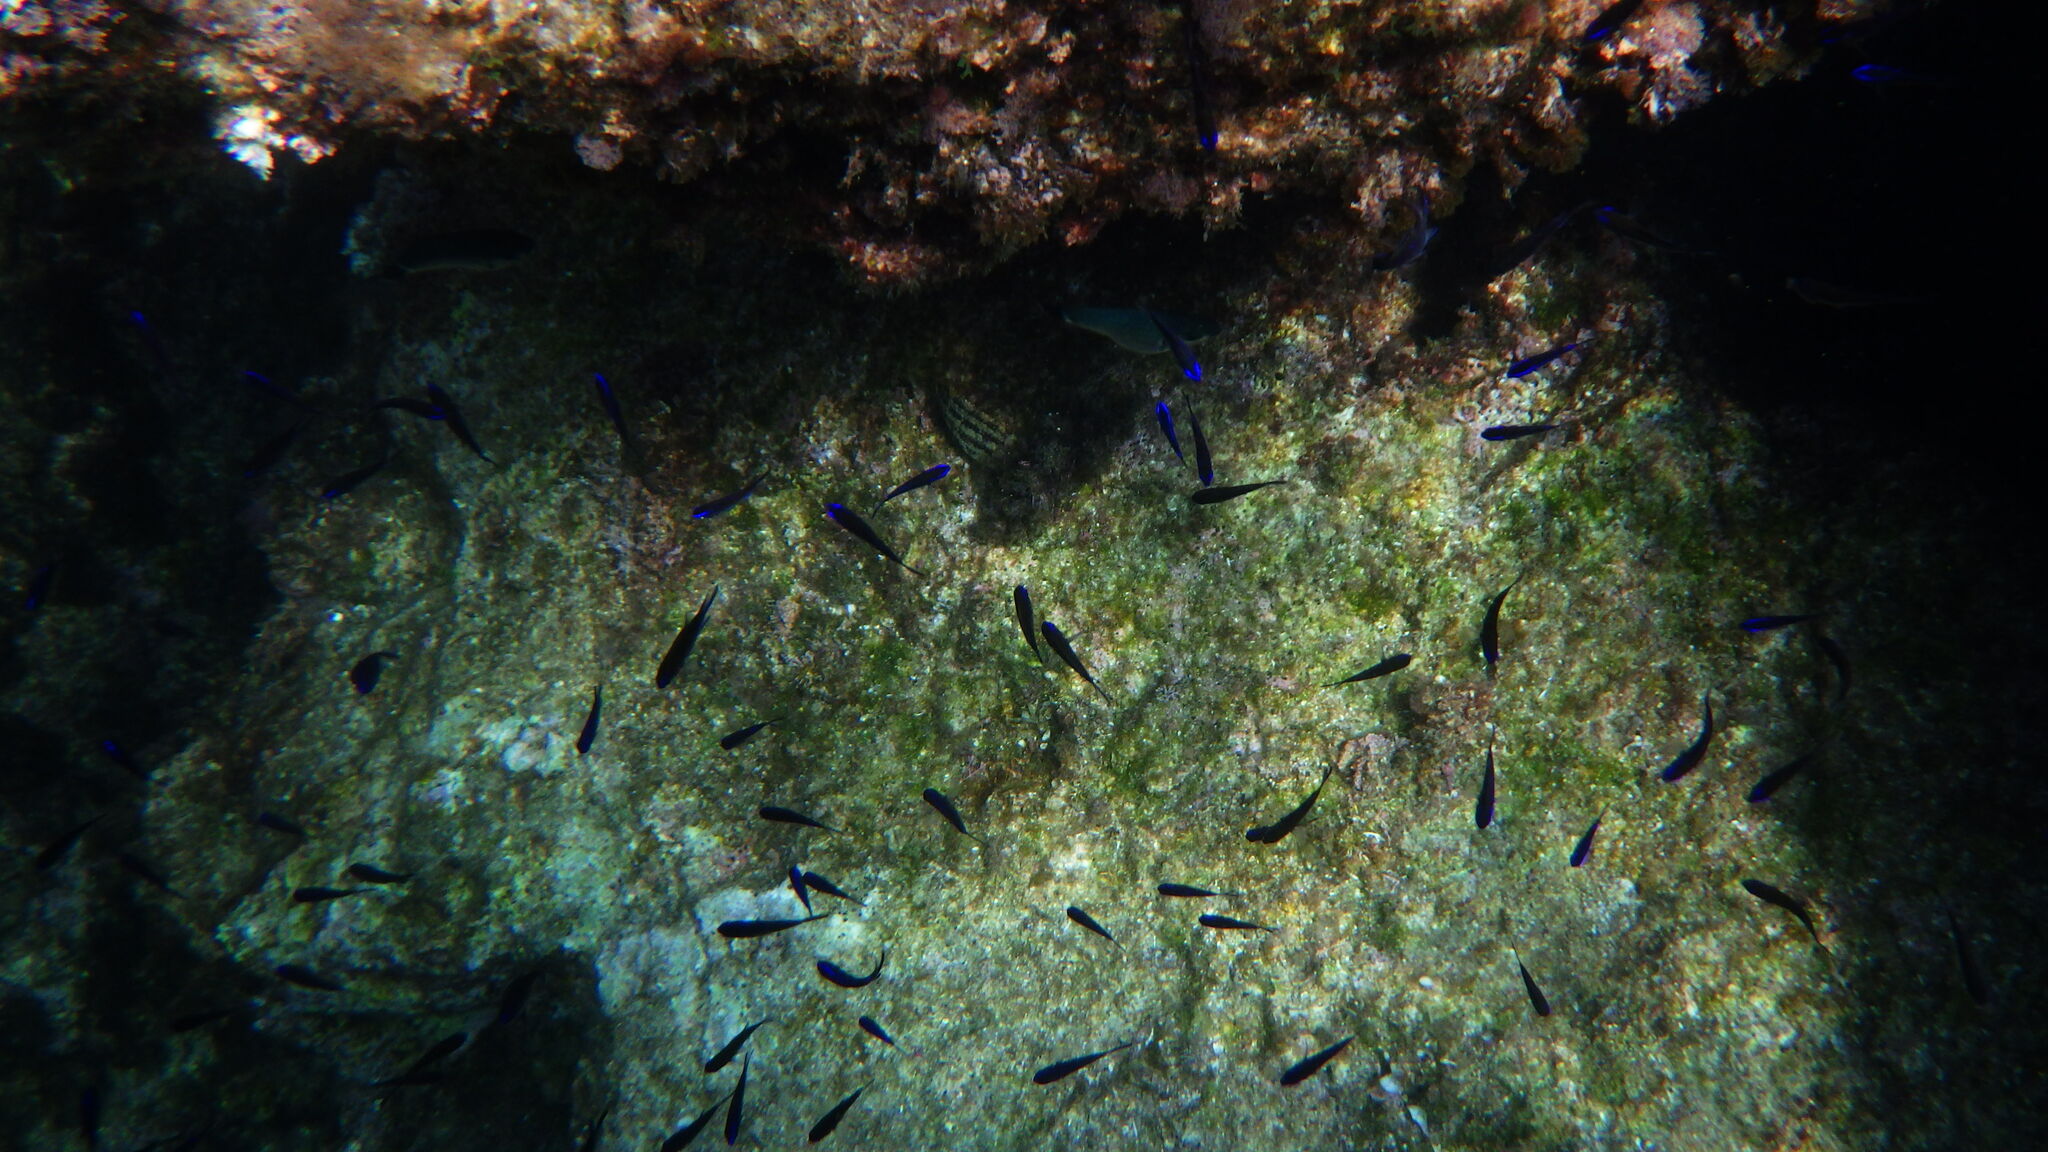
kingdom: Animalia
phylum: Chordata
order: Perciformes
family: Pomacentridae
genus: Chromis
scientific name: Chromis chromis
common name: Damselfish
